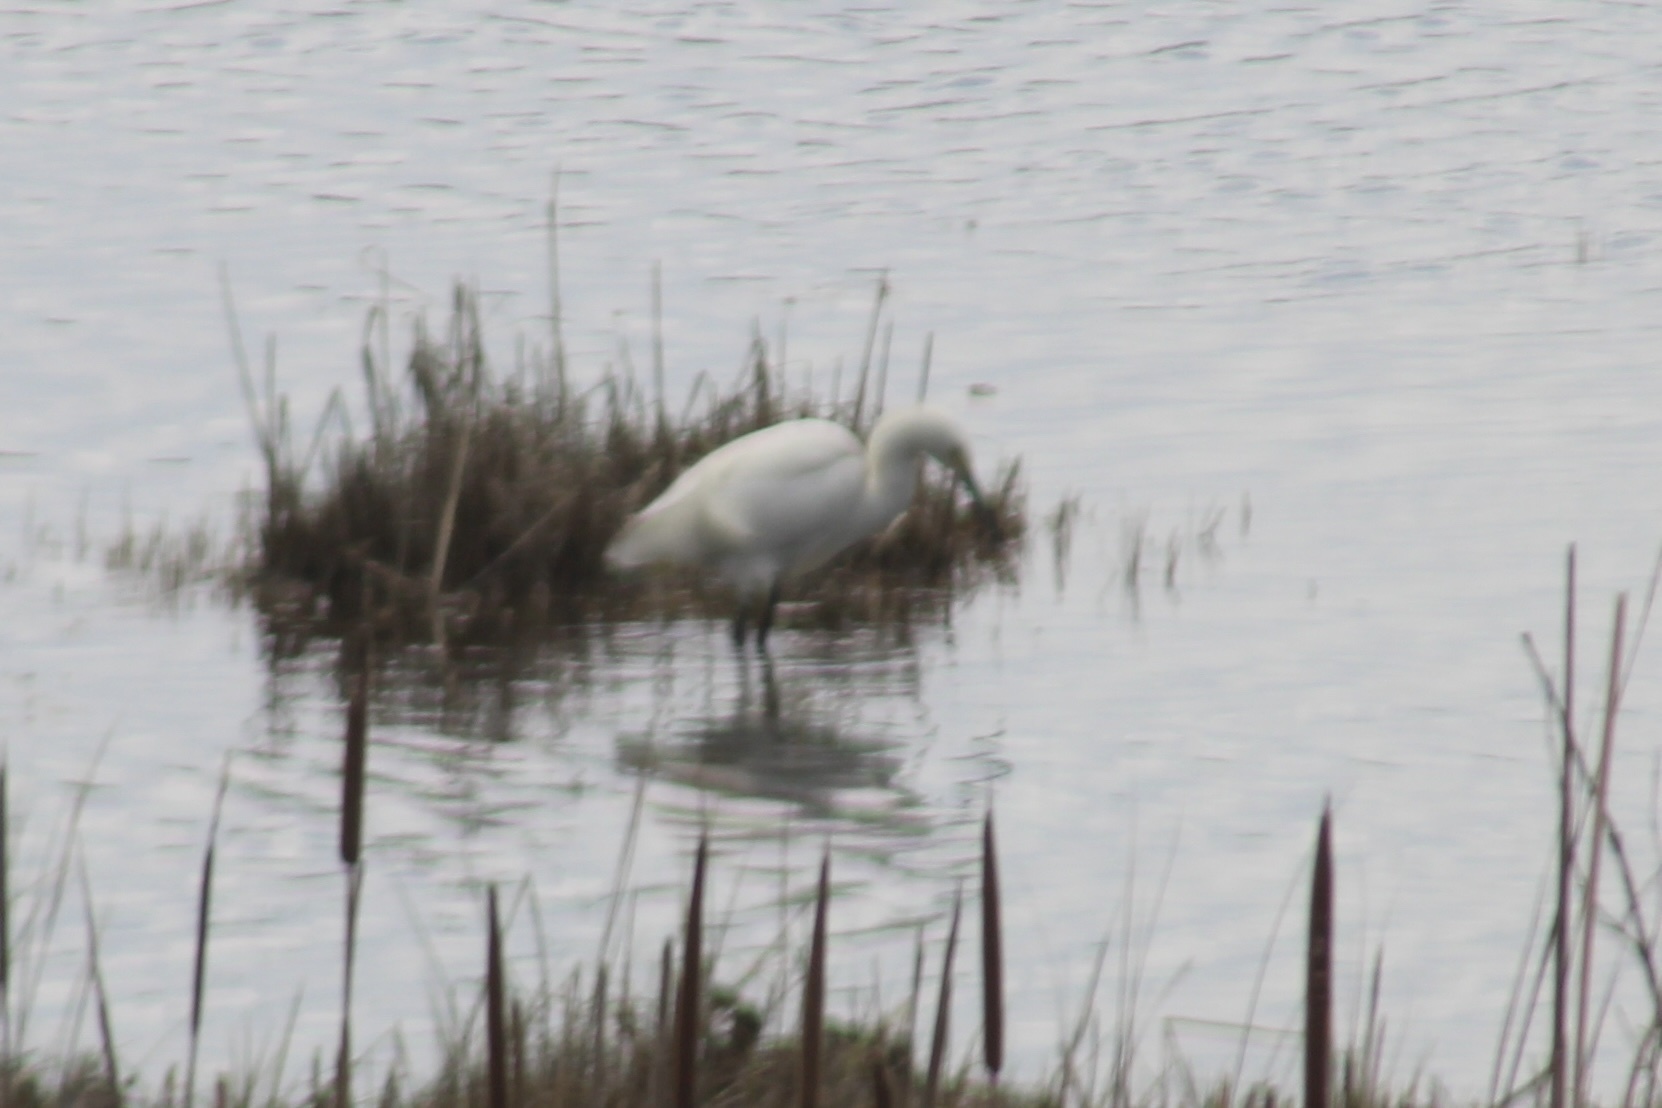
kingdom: Animalia
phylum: Chordata
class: Aves
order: Pelecaniformes
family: Ardeidae
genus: Egretta
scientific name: Egretta thula
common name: Snowy egret
